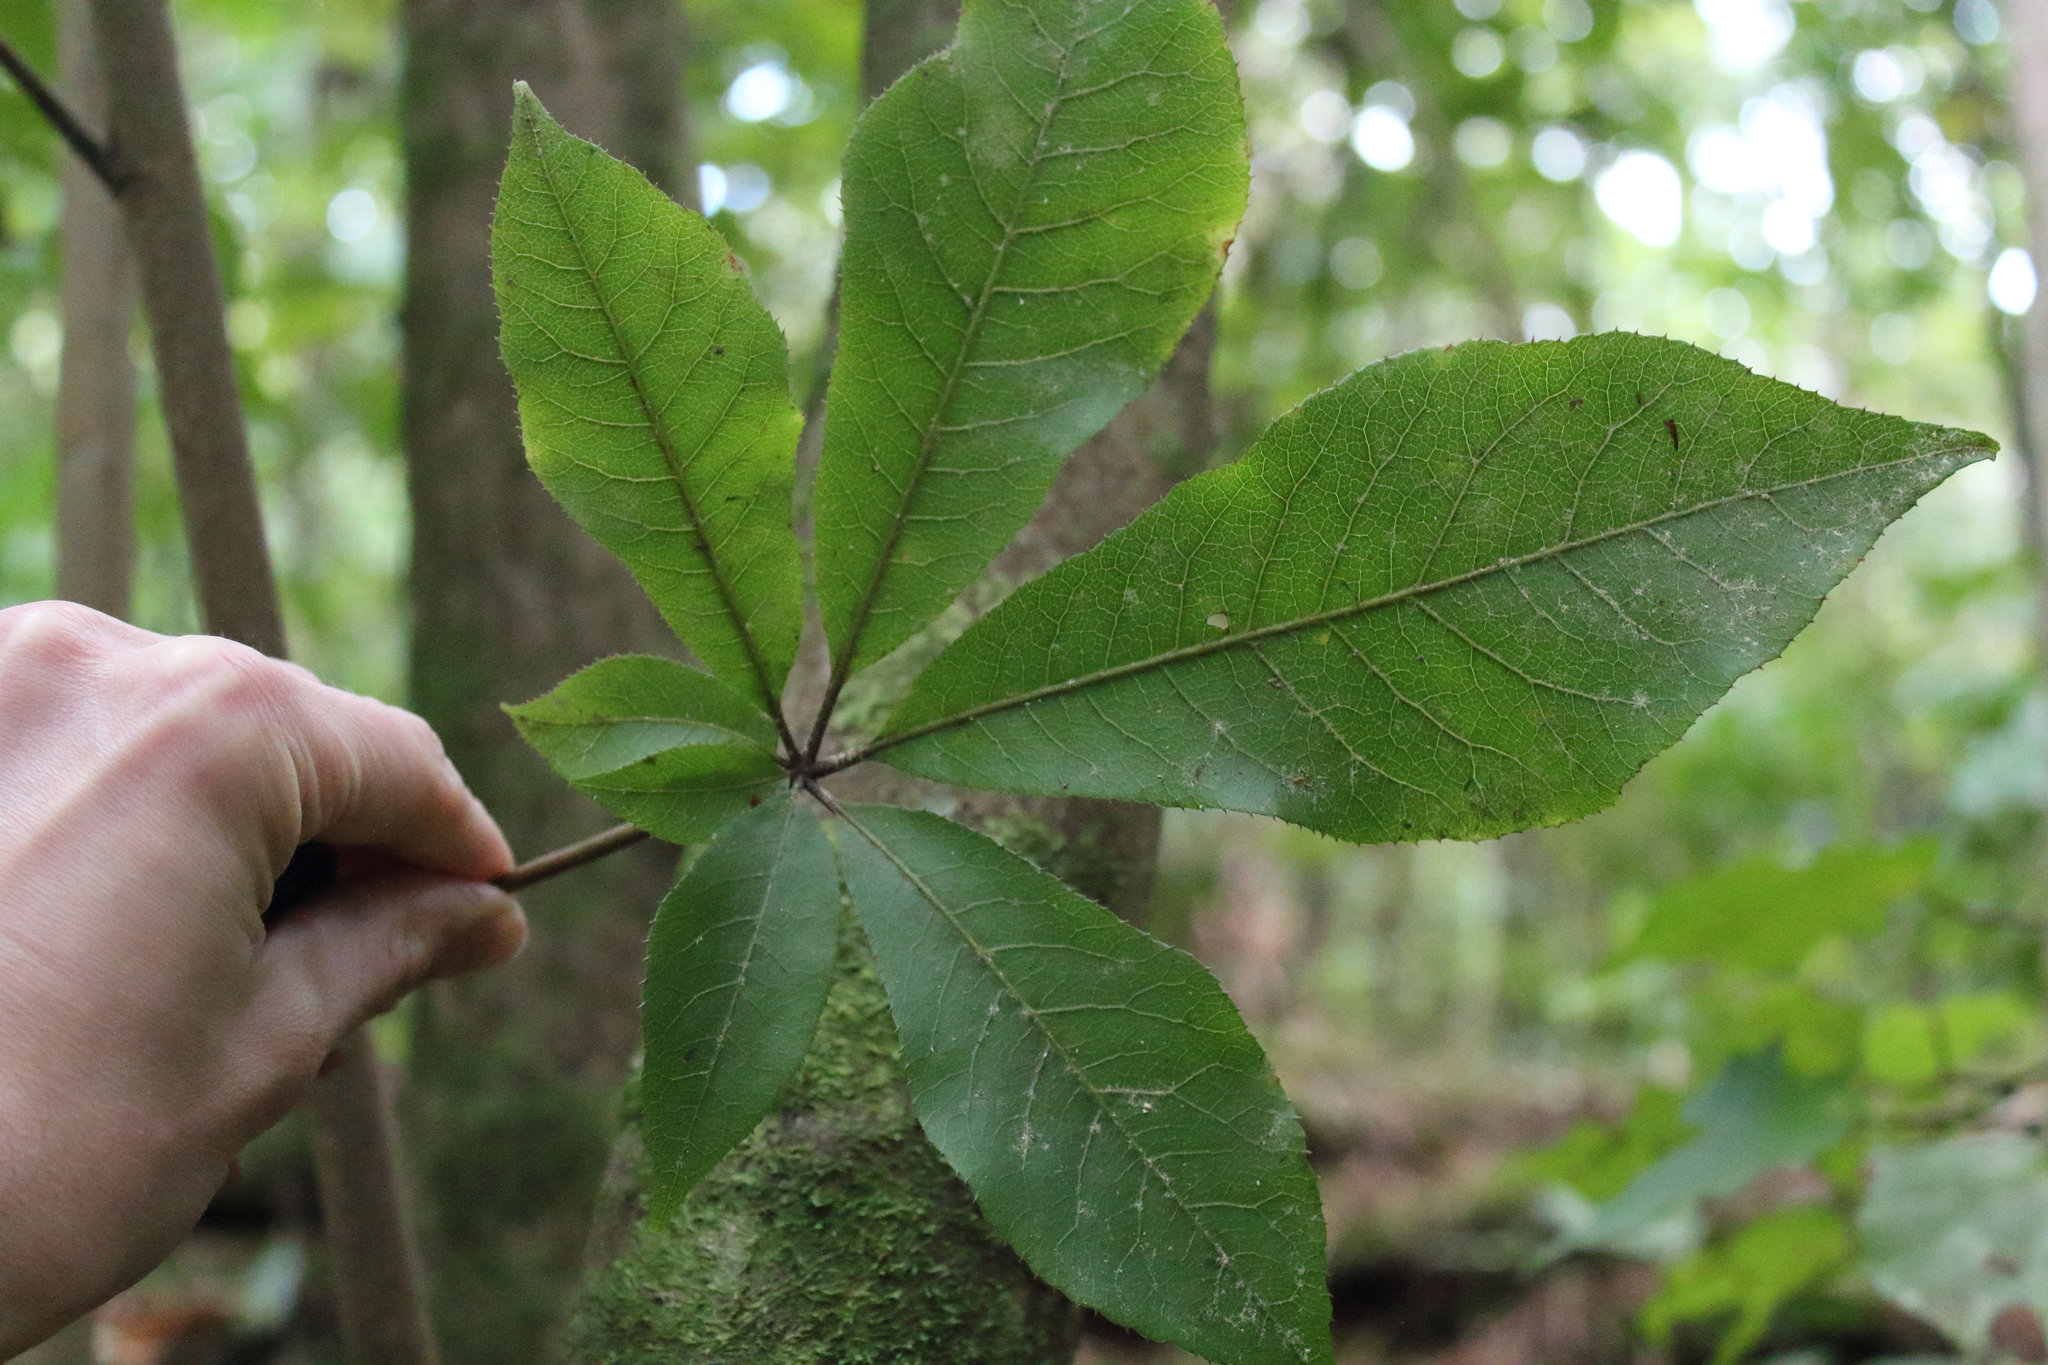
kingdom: Plantae
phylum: Tracheophyta
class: Magnoliopsida
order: Apiales
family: Araliaceae
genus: Schefflera
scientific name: Schefflera digitata
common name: Pate
